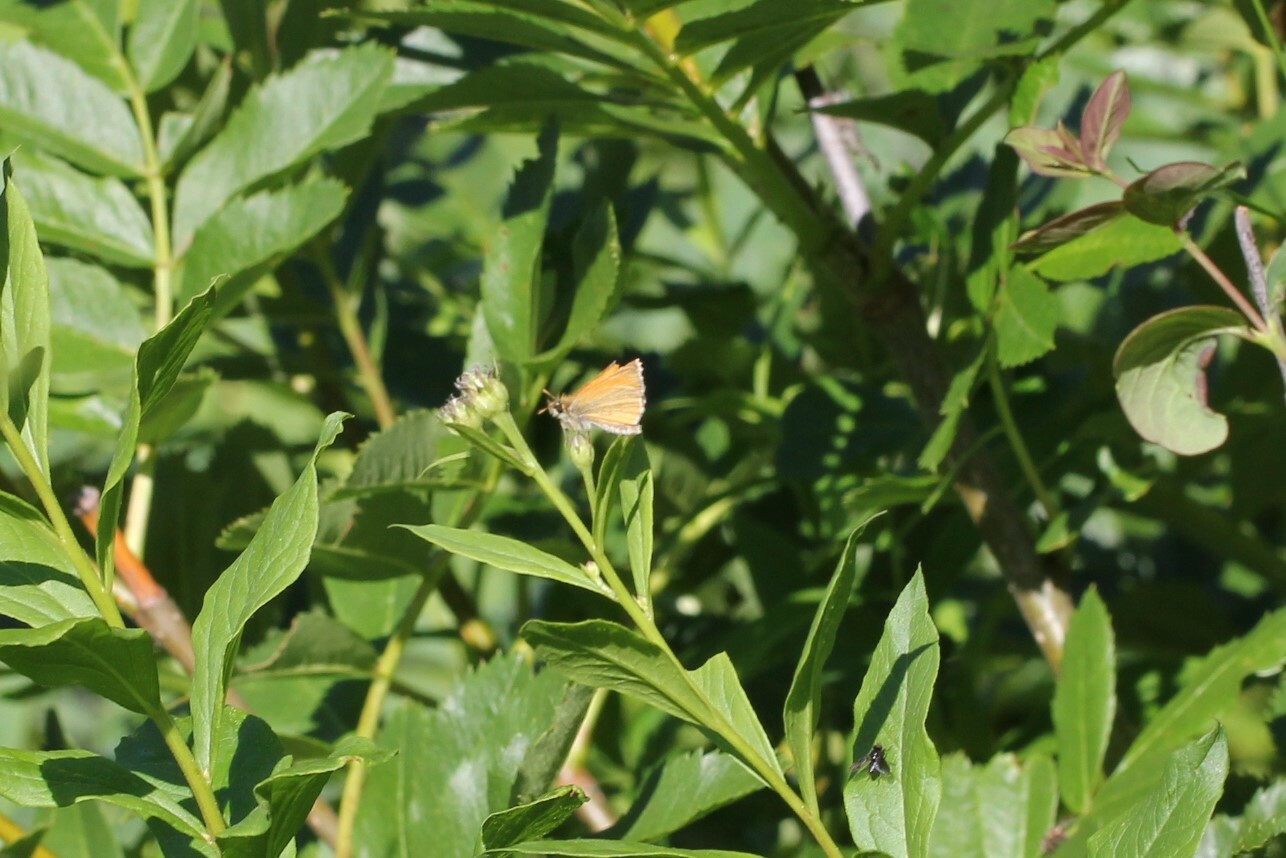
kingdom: Animalia
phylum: Arthropoda
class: Insecta
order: Lepidoptera
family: Hesperiidae
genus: Thymelicus
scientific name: Thymelicus lineola
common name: Essex skipper
